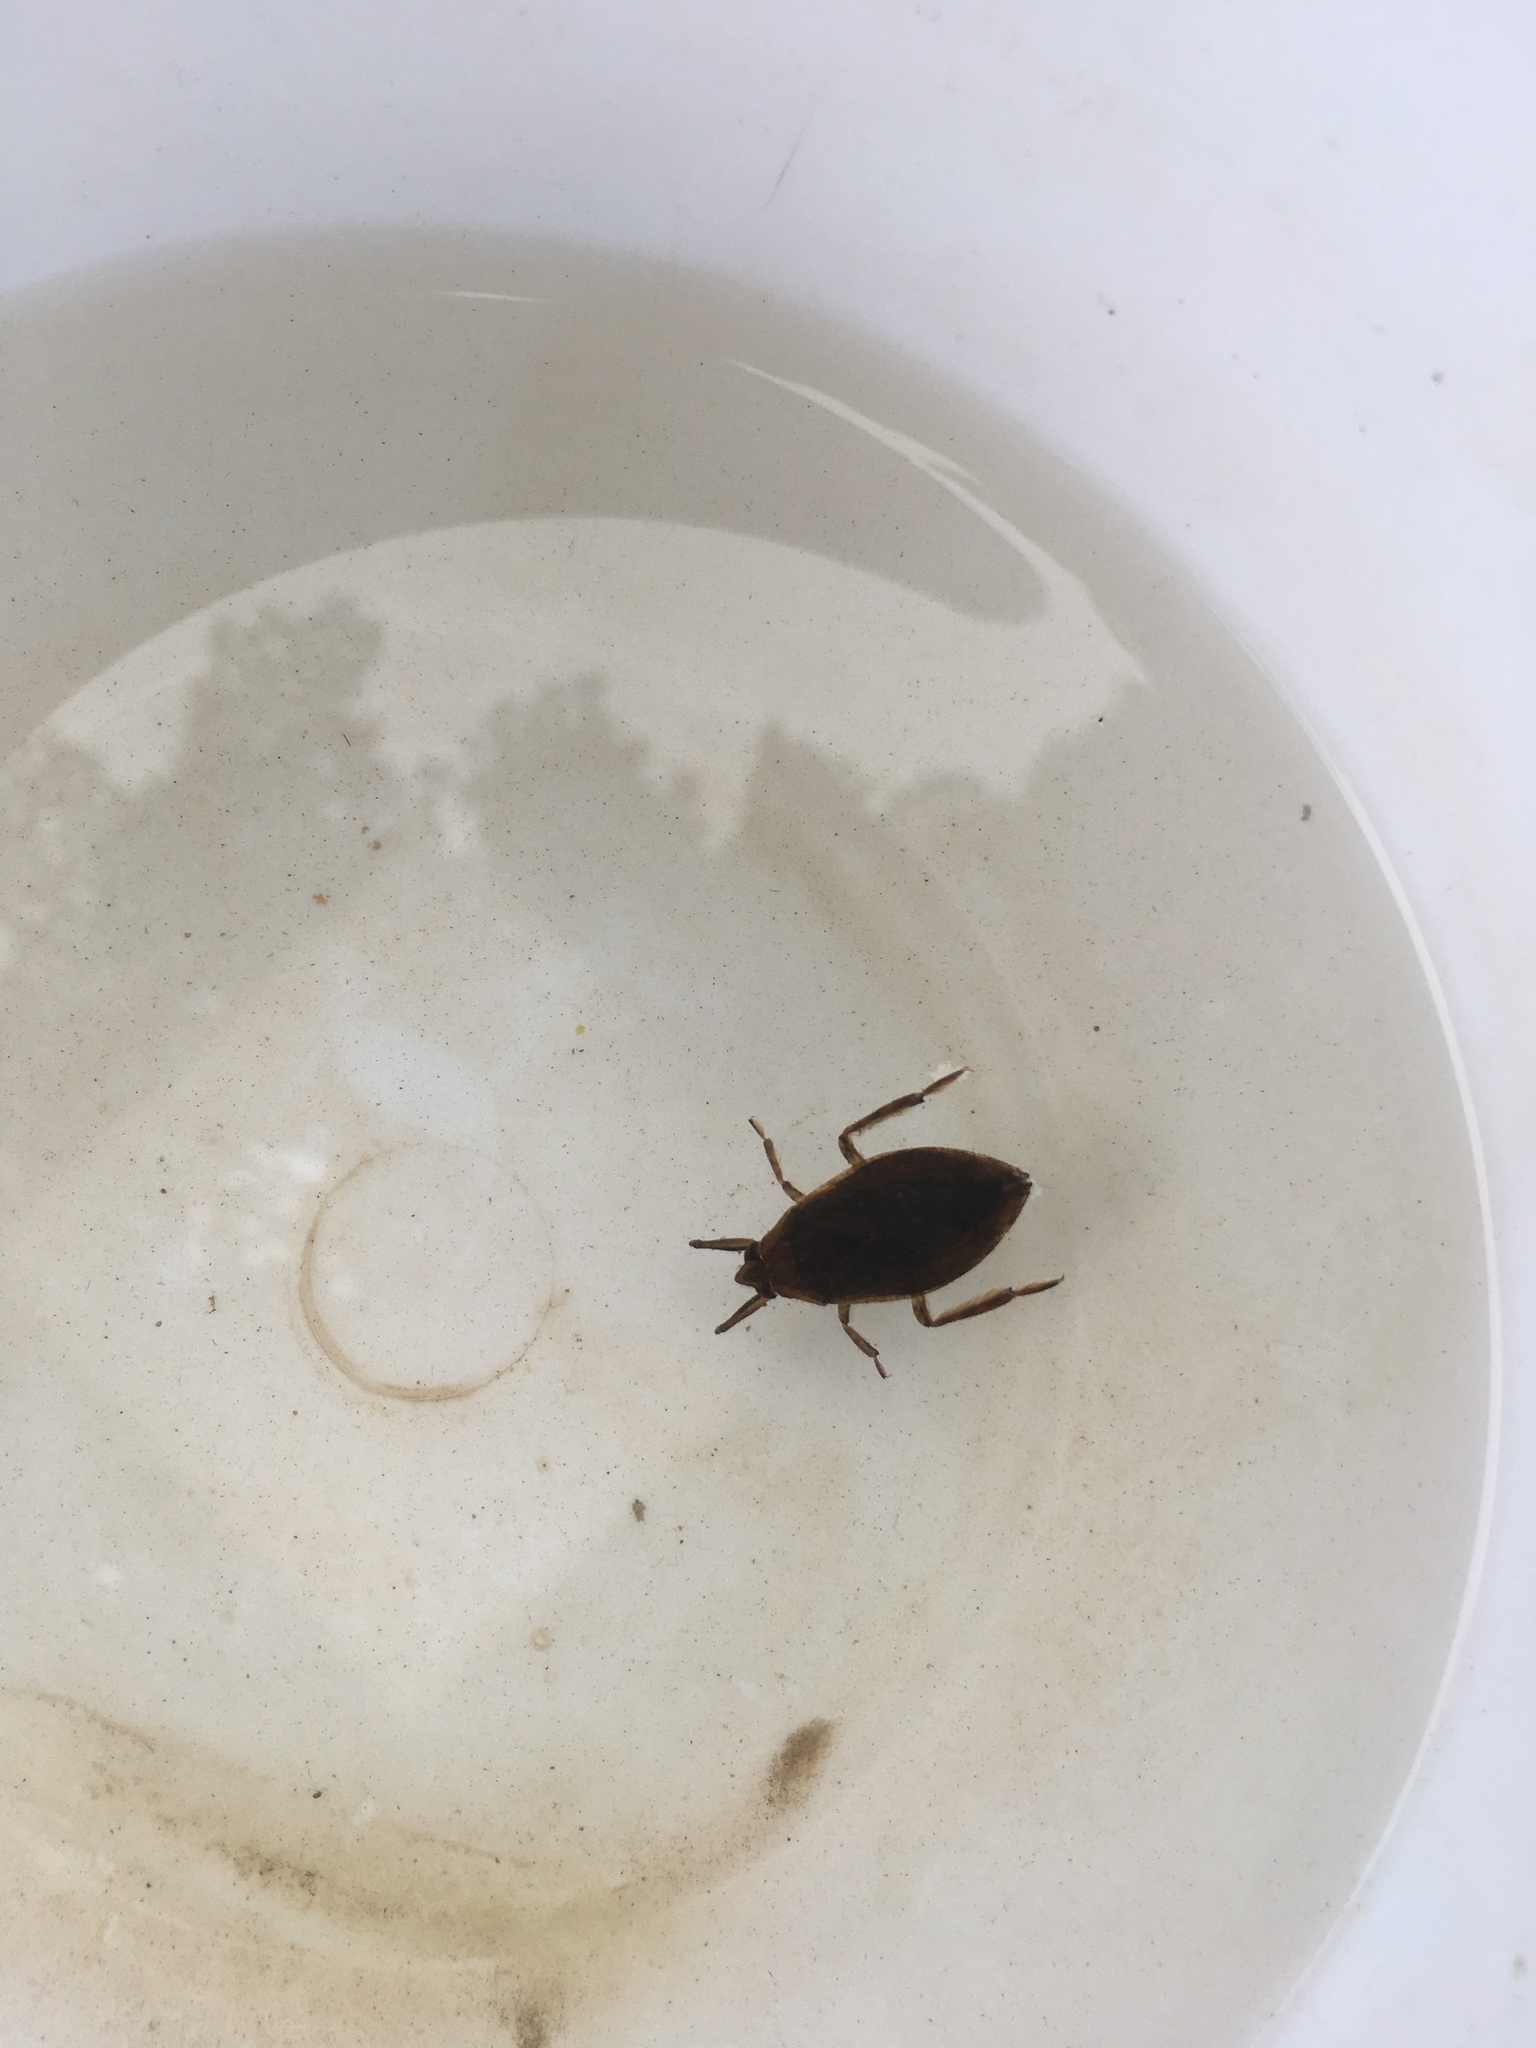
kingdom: Animalia
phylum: Arthropoda
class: Insecta
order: Hemiptera
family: Belostomatidae
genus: Belostoma
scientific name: Belostoma
